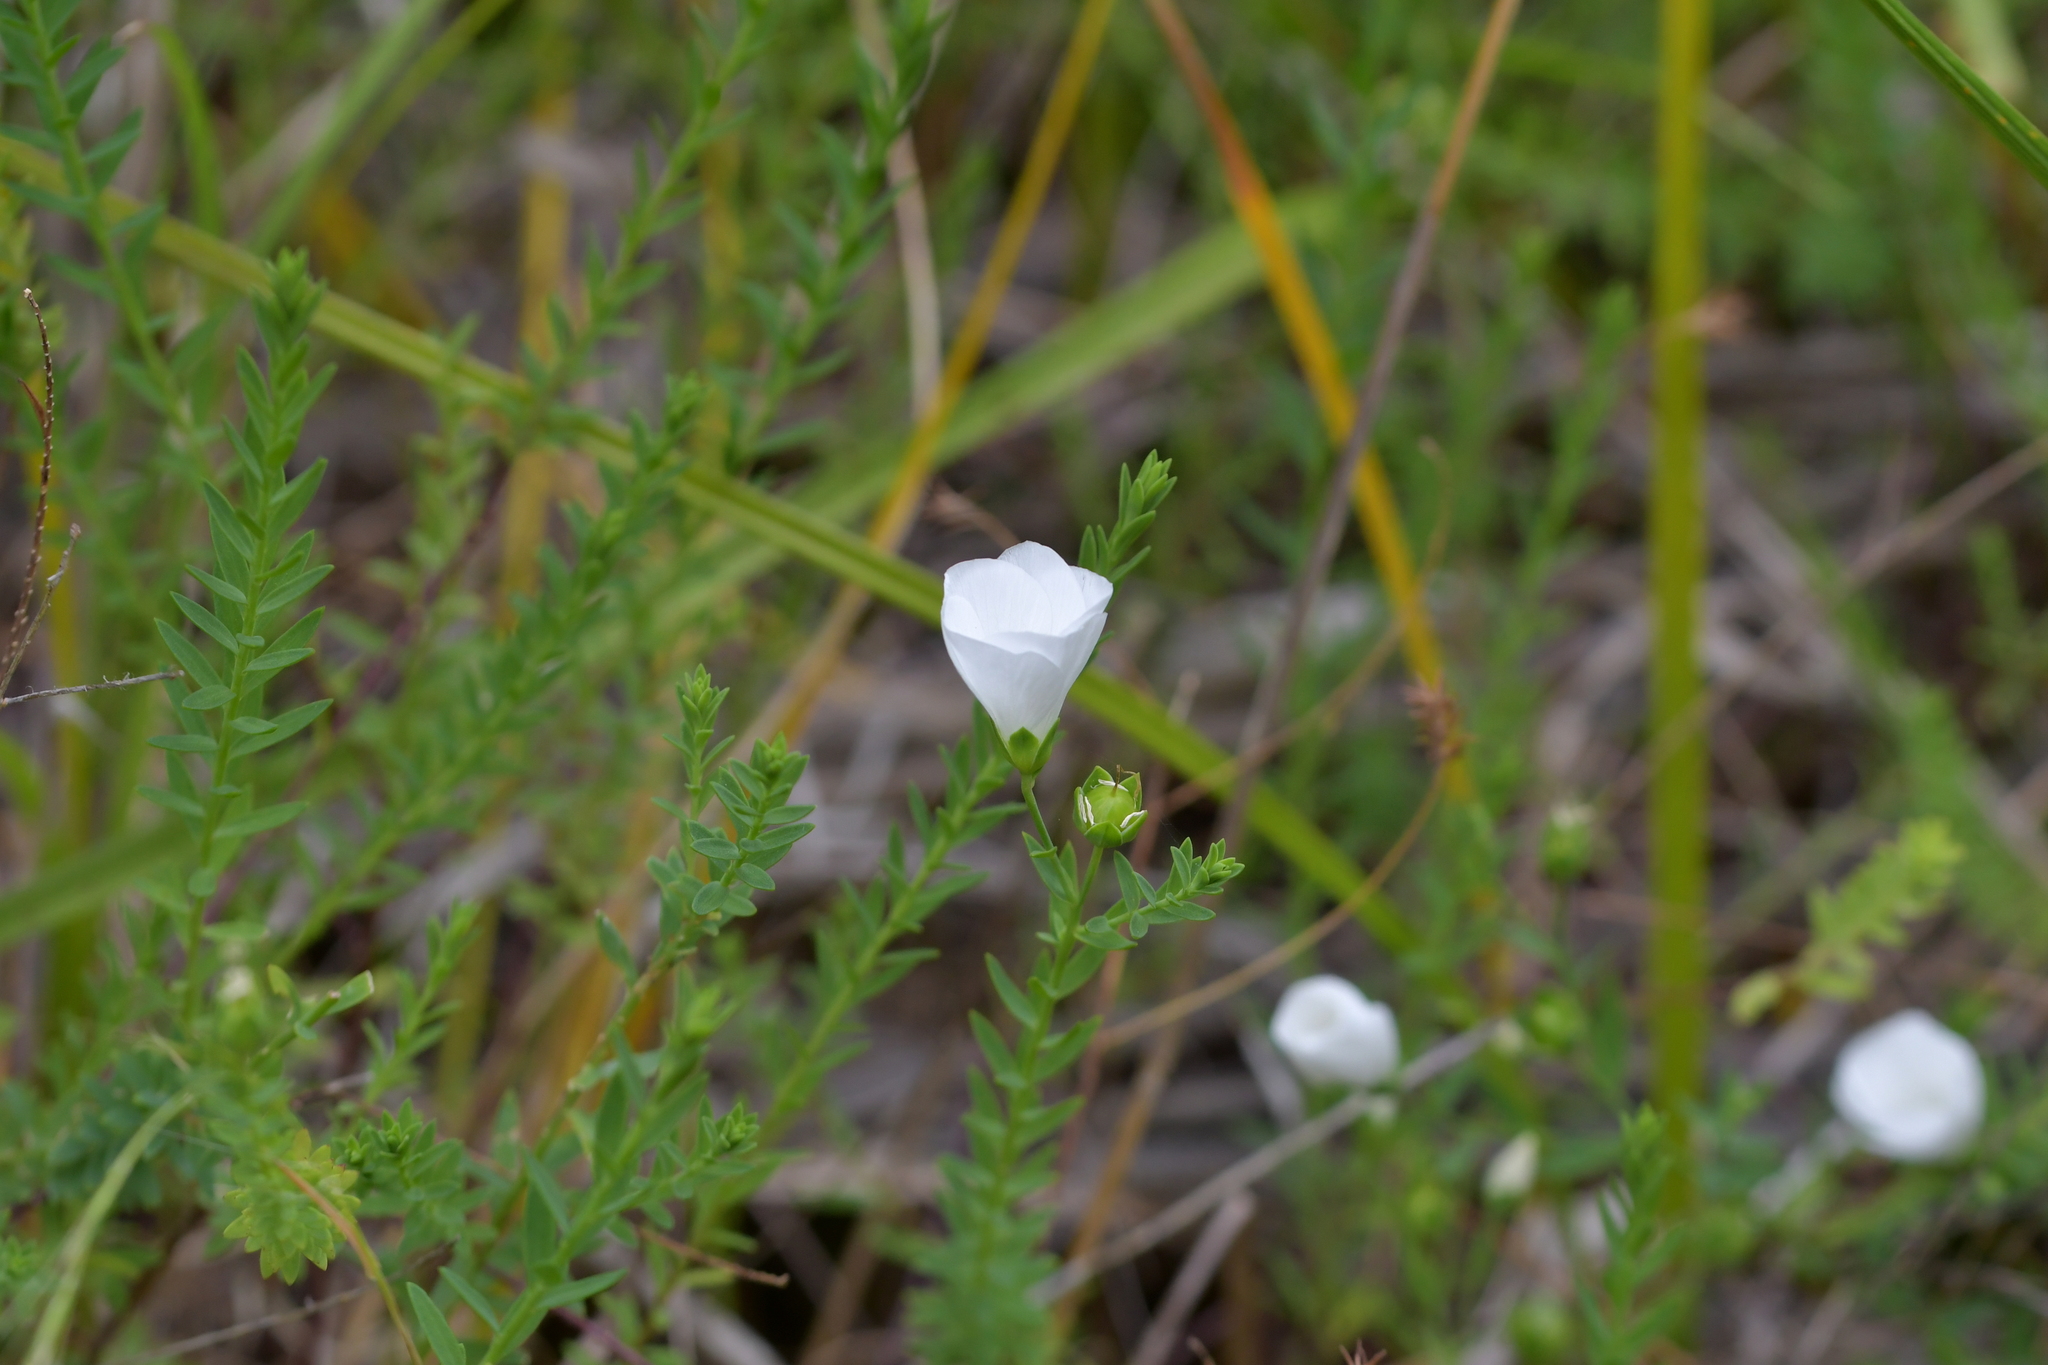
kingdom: Plantae
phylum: Tracheophyta
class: Magnoliopsida
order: Malpighiales
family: Linaceae
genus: Linum
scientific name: Linum monogynum
